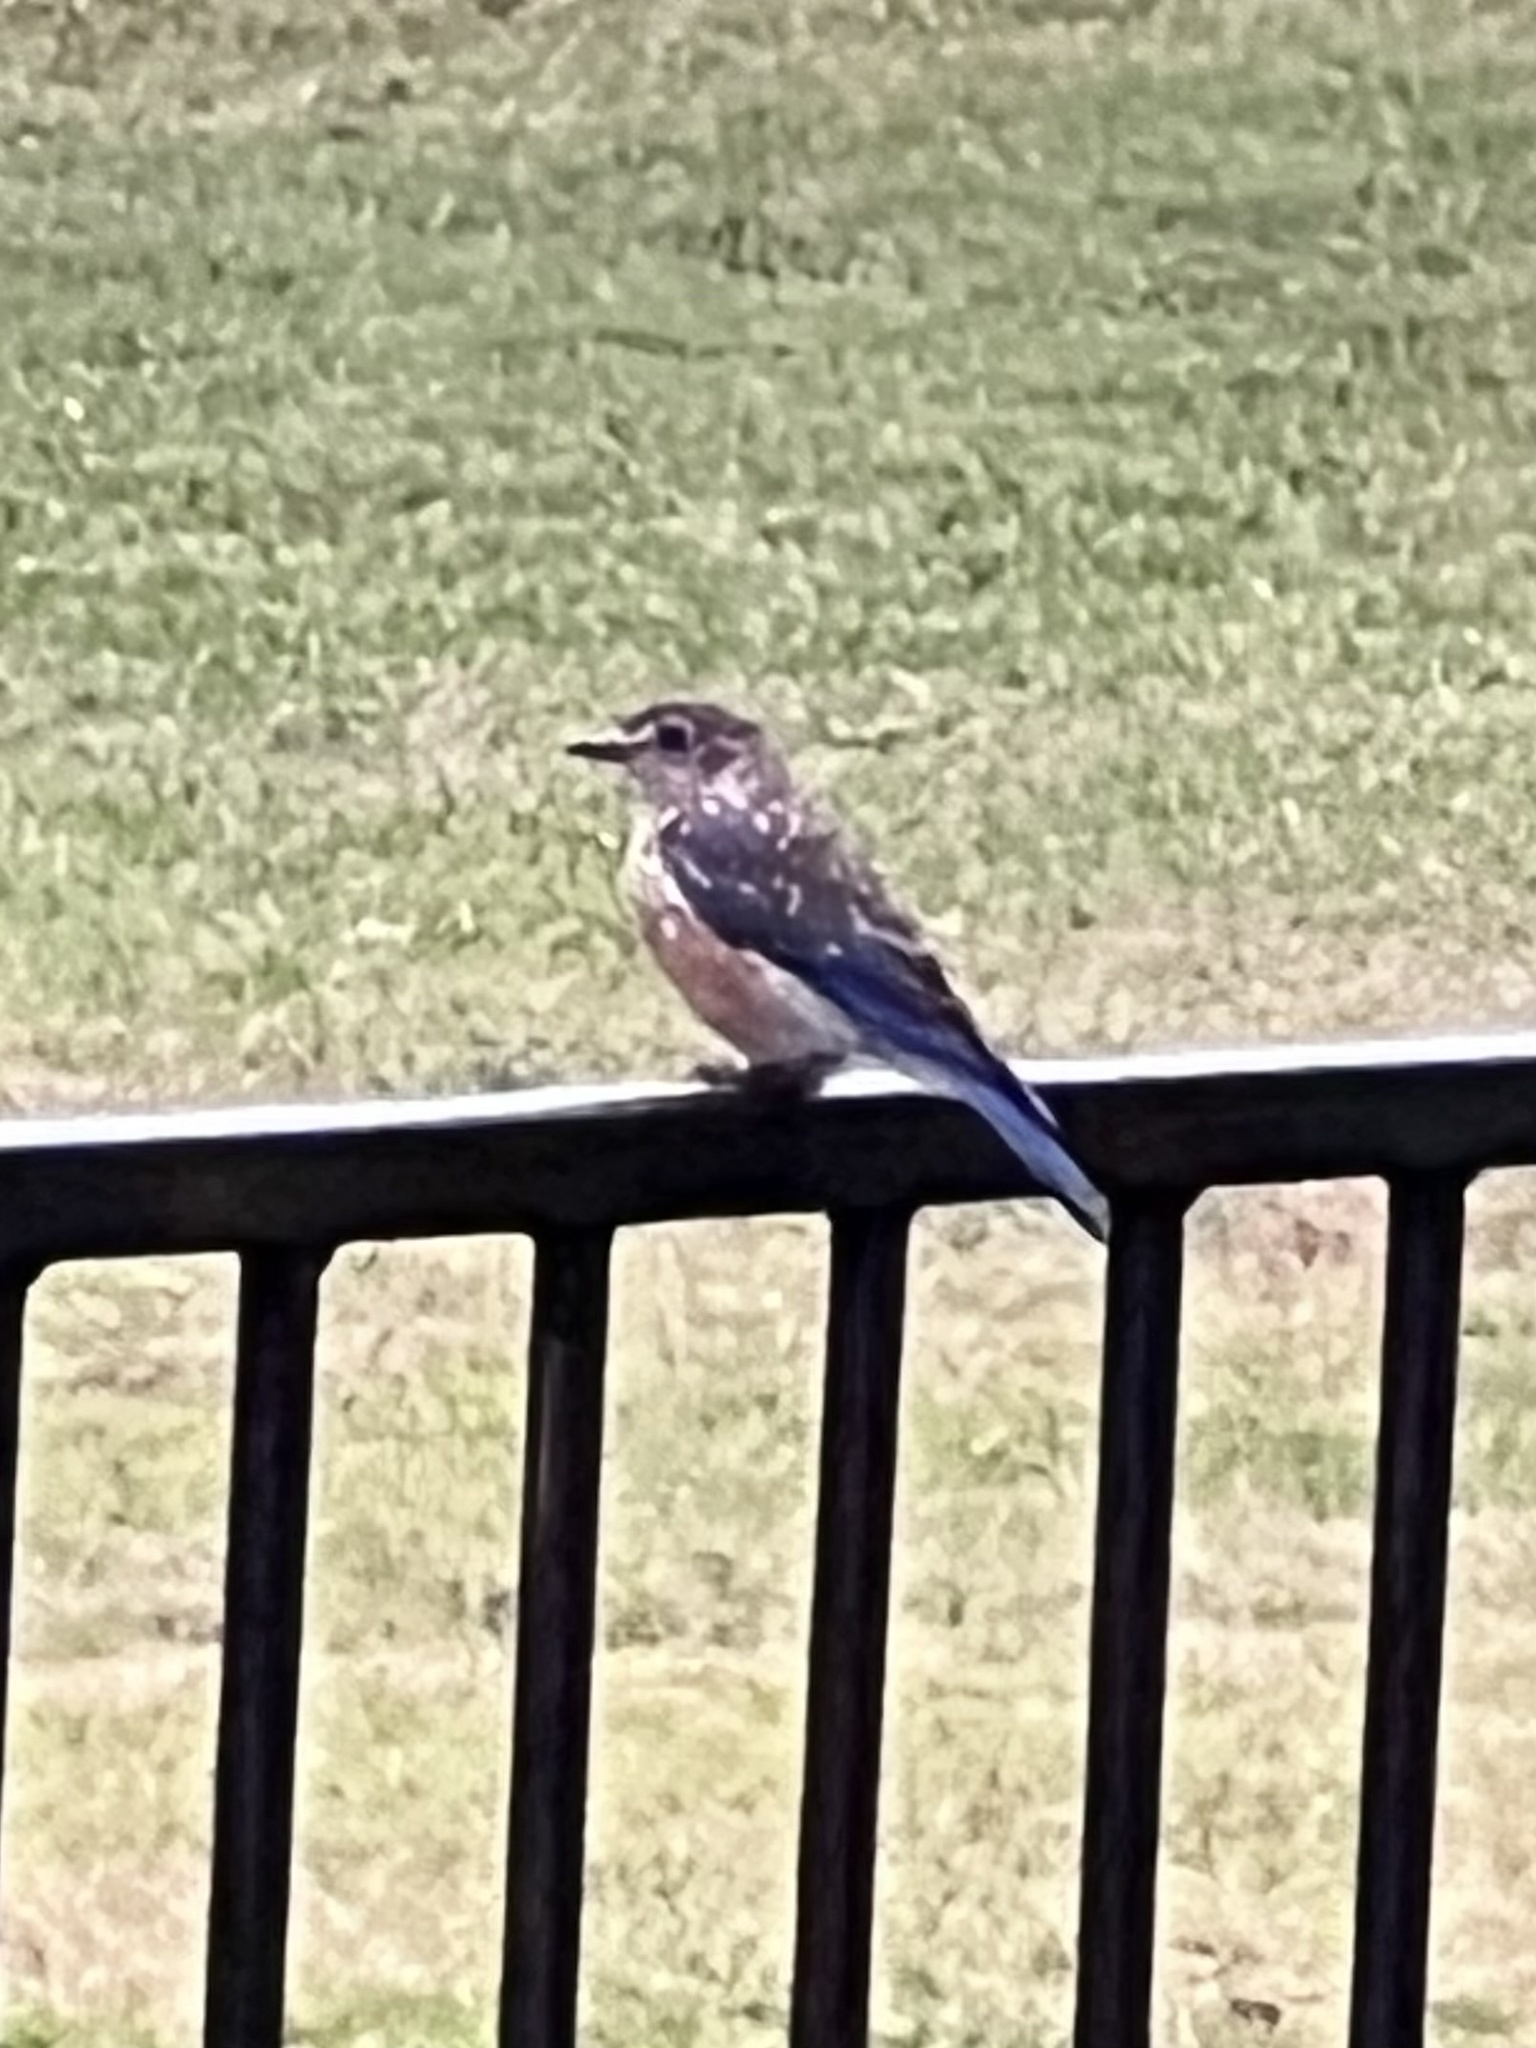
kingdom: Animalia
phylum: Chordata
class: Aves
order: Passeriformes
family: Turdidae
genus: Sialia
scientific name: Sialia sialis
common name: Eastern bluebird
